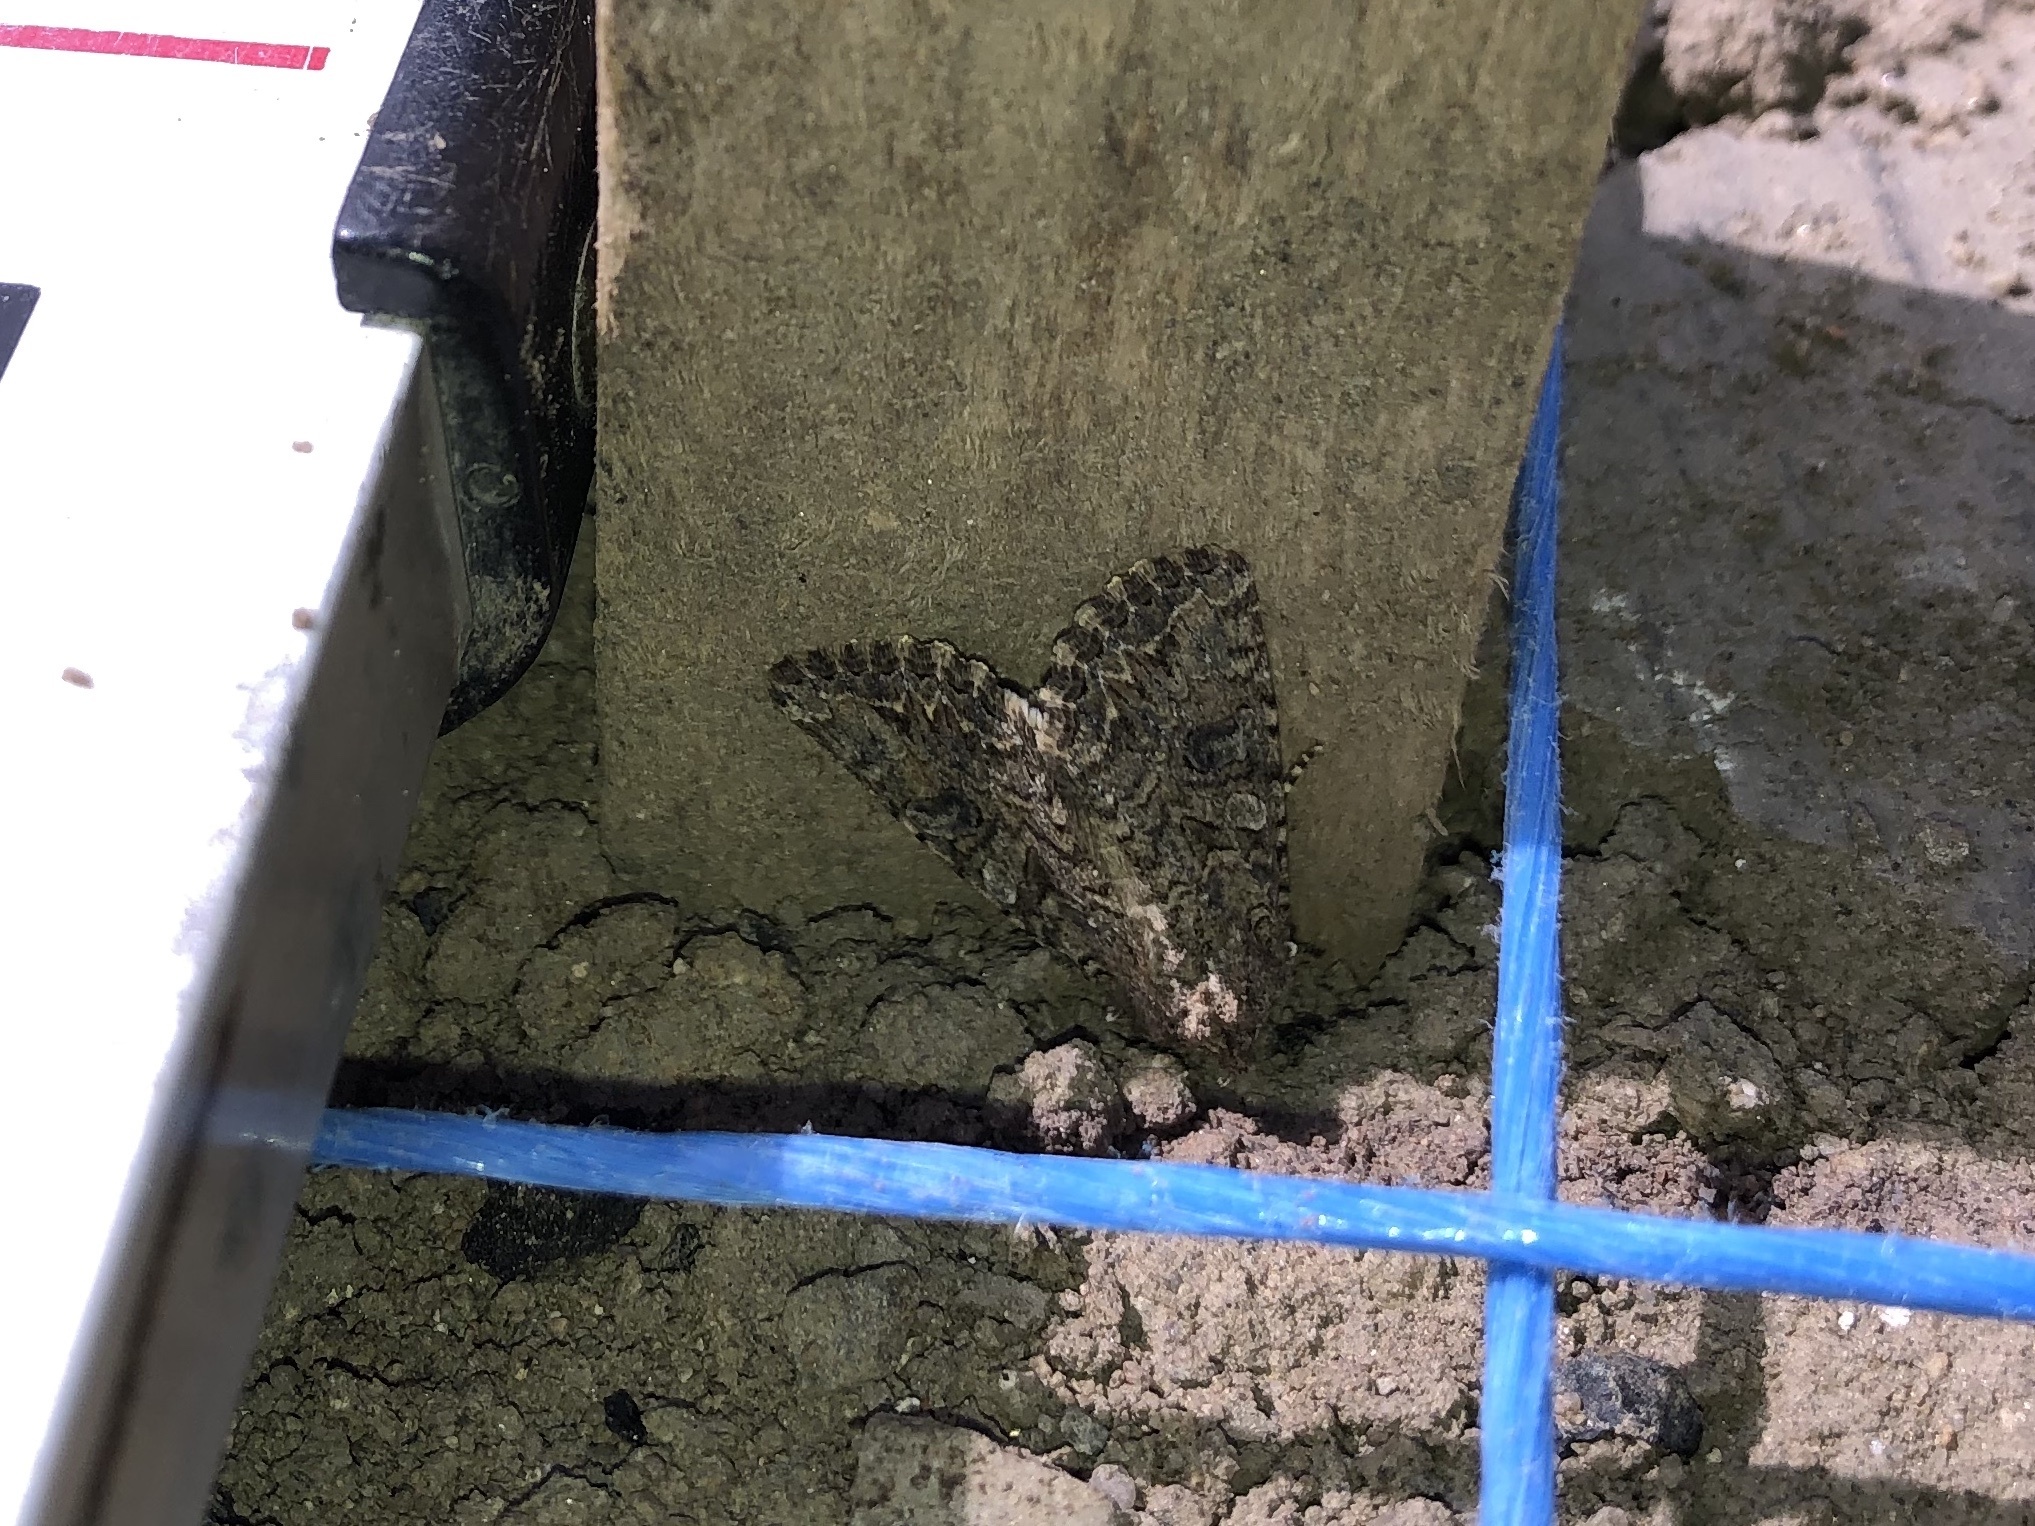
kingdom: Animalia
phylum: Arthropoda
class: Insecta
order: Lepidoptera
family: Noctuidae
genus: Anarta
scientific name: Anarta trifolii
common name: Clover cutworm moth
